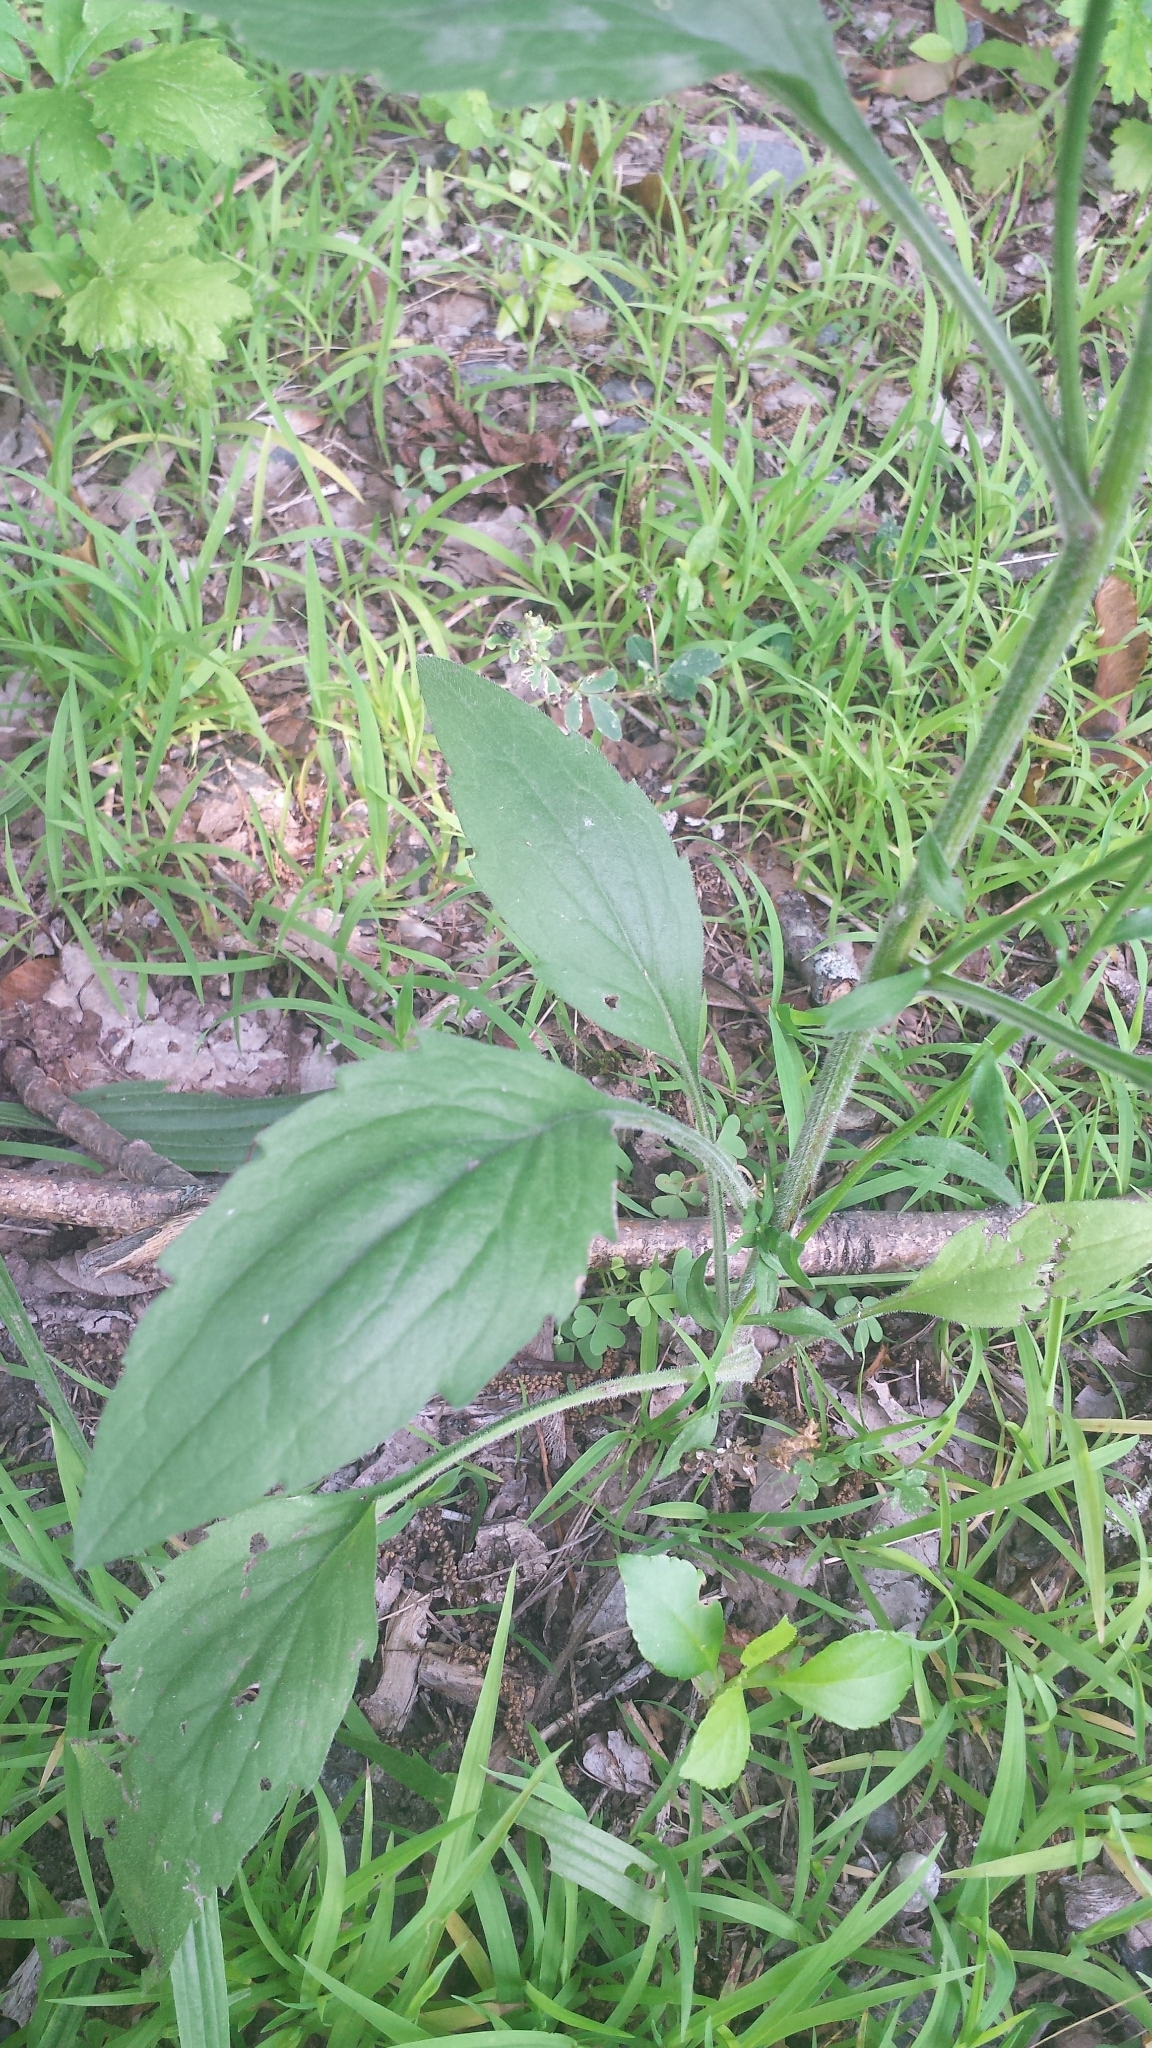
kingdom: Plantae
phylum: Tracheophyta
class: Magnoliopsida
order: Asterales
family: Asteraceae
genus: Erigeron
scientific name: Erigeron annuus
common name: Tall fleabane
